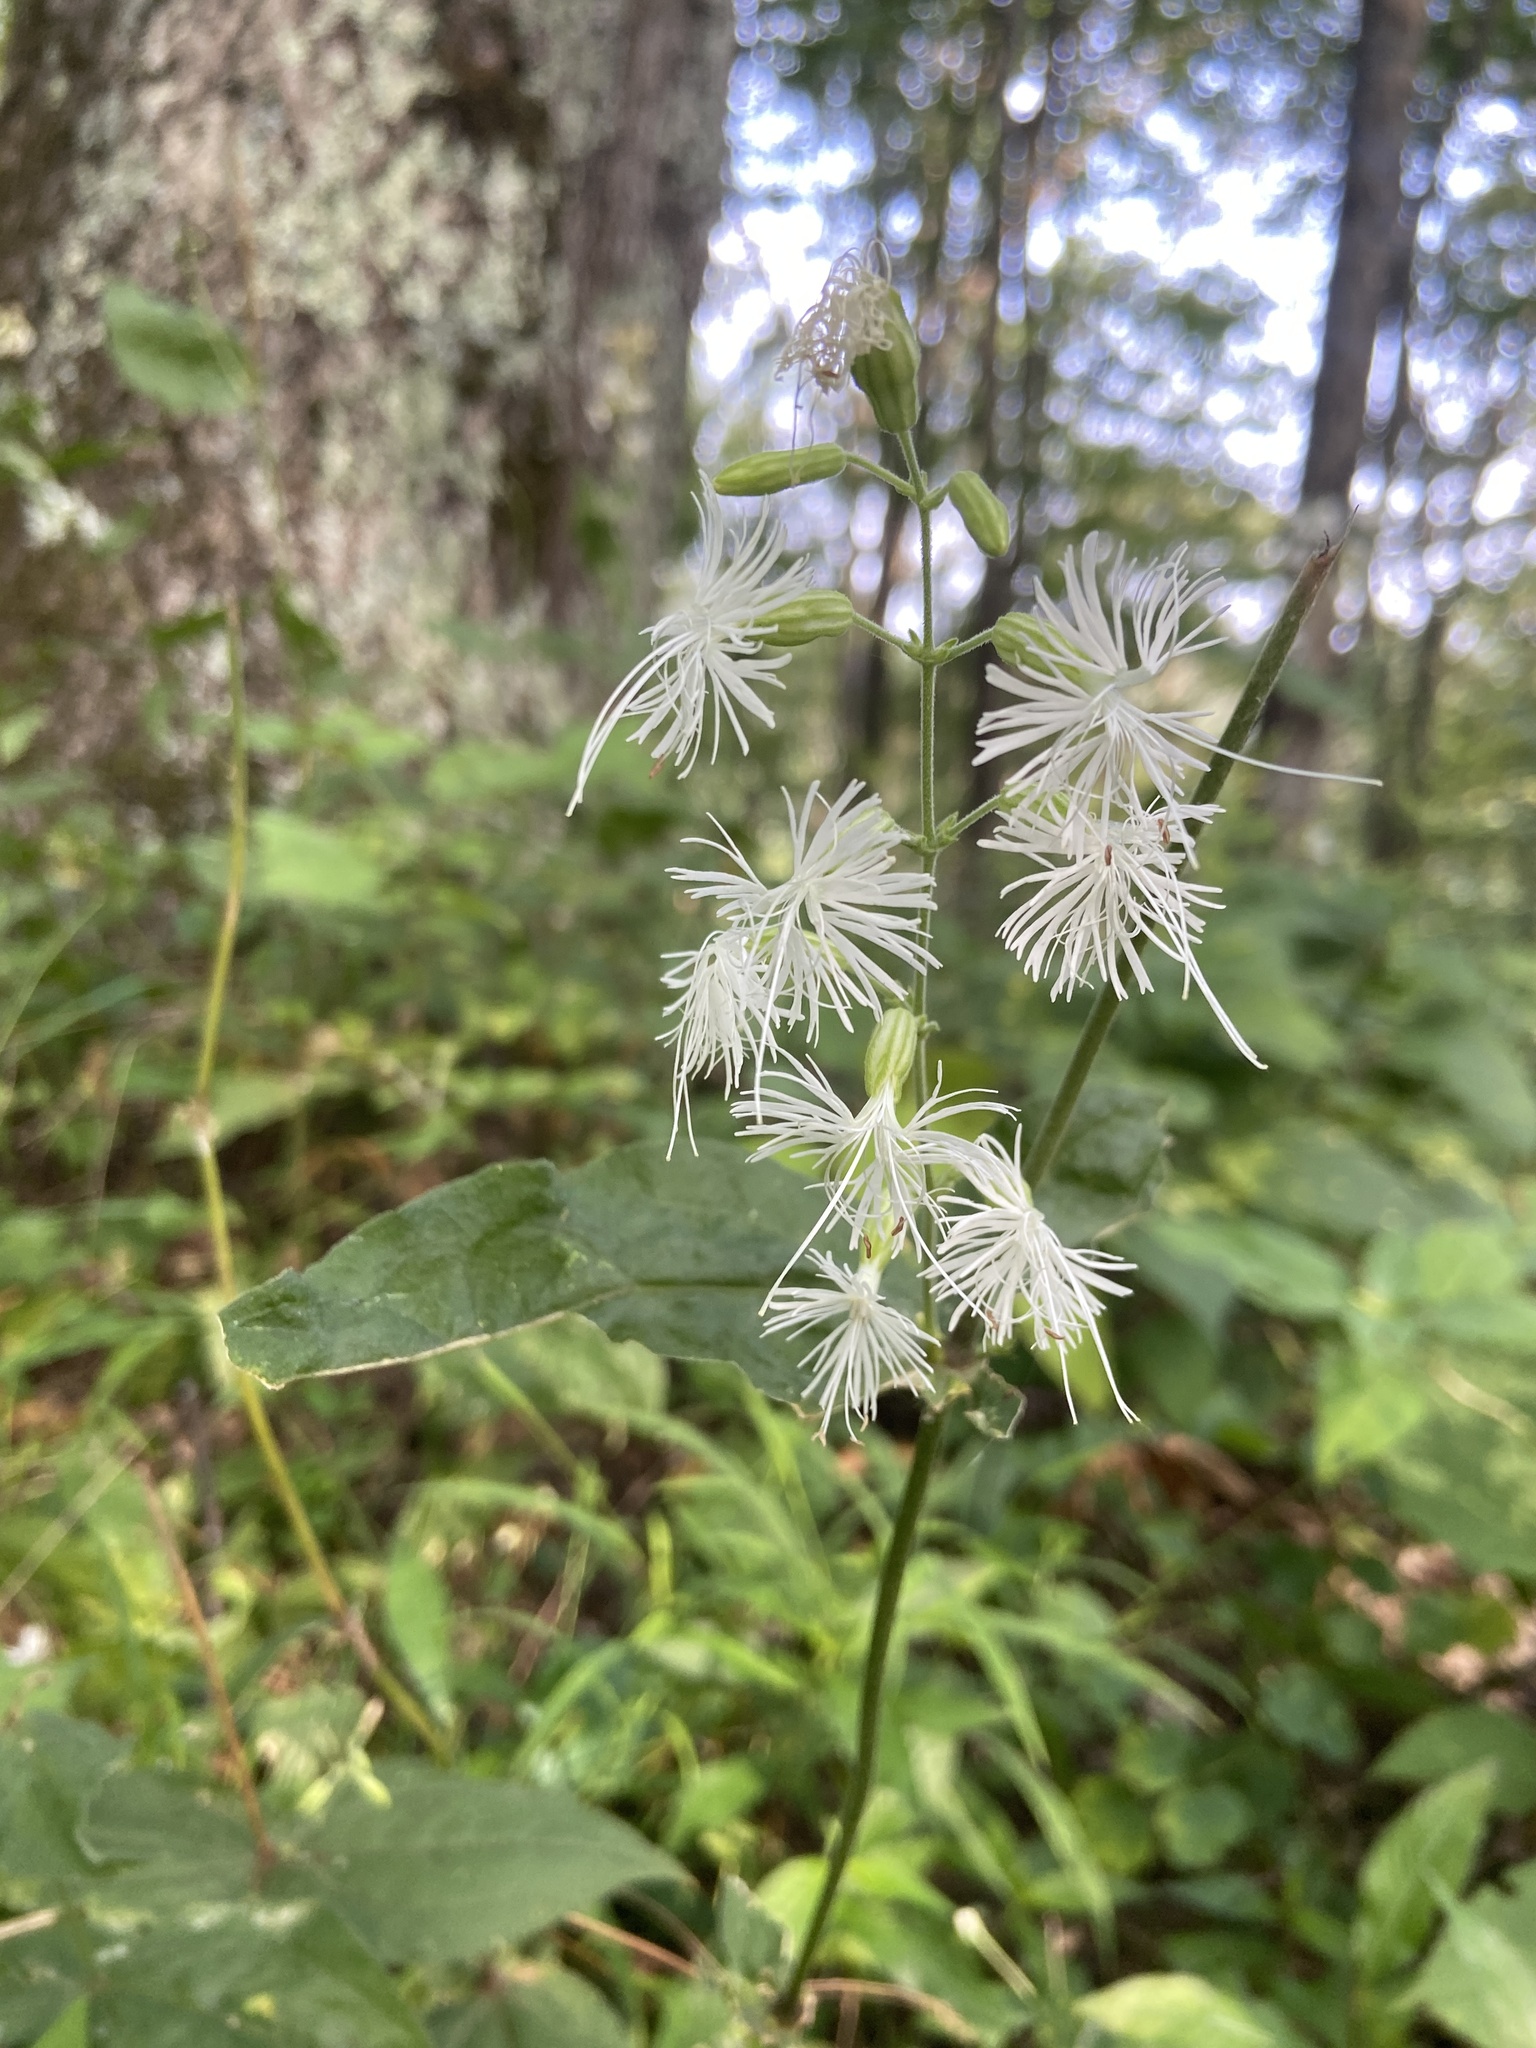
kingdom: Plantae
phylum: Tracheophyta
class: Magnoliopsida
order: Caryophyllales
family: Caryophyllaceae
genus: Silene
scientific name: Silene ovata
